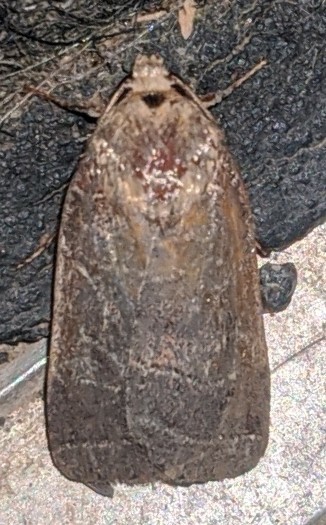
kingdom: Animalia
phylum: Arthropoda
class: Insecta
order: Lepidoptera
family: Noctuidae
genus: Orthodes
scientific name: Orthodes majuscula
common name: Rustic quaker
